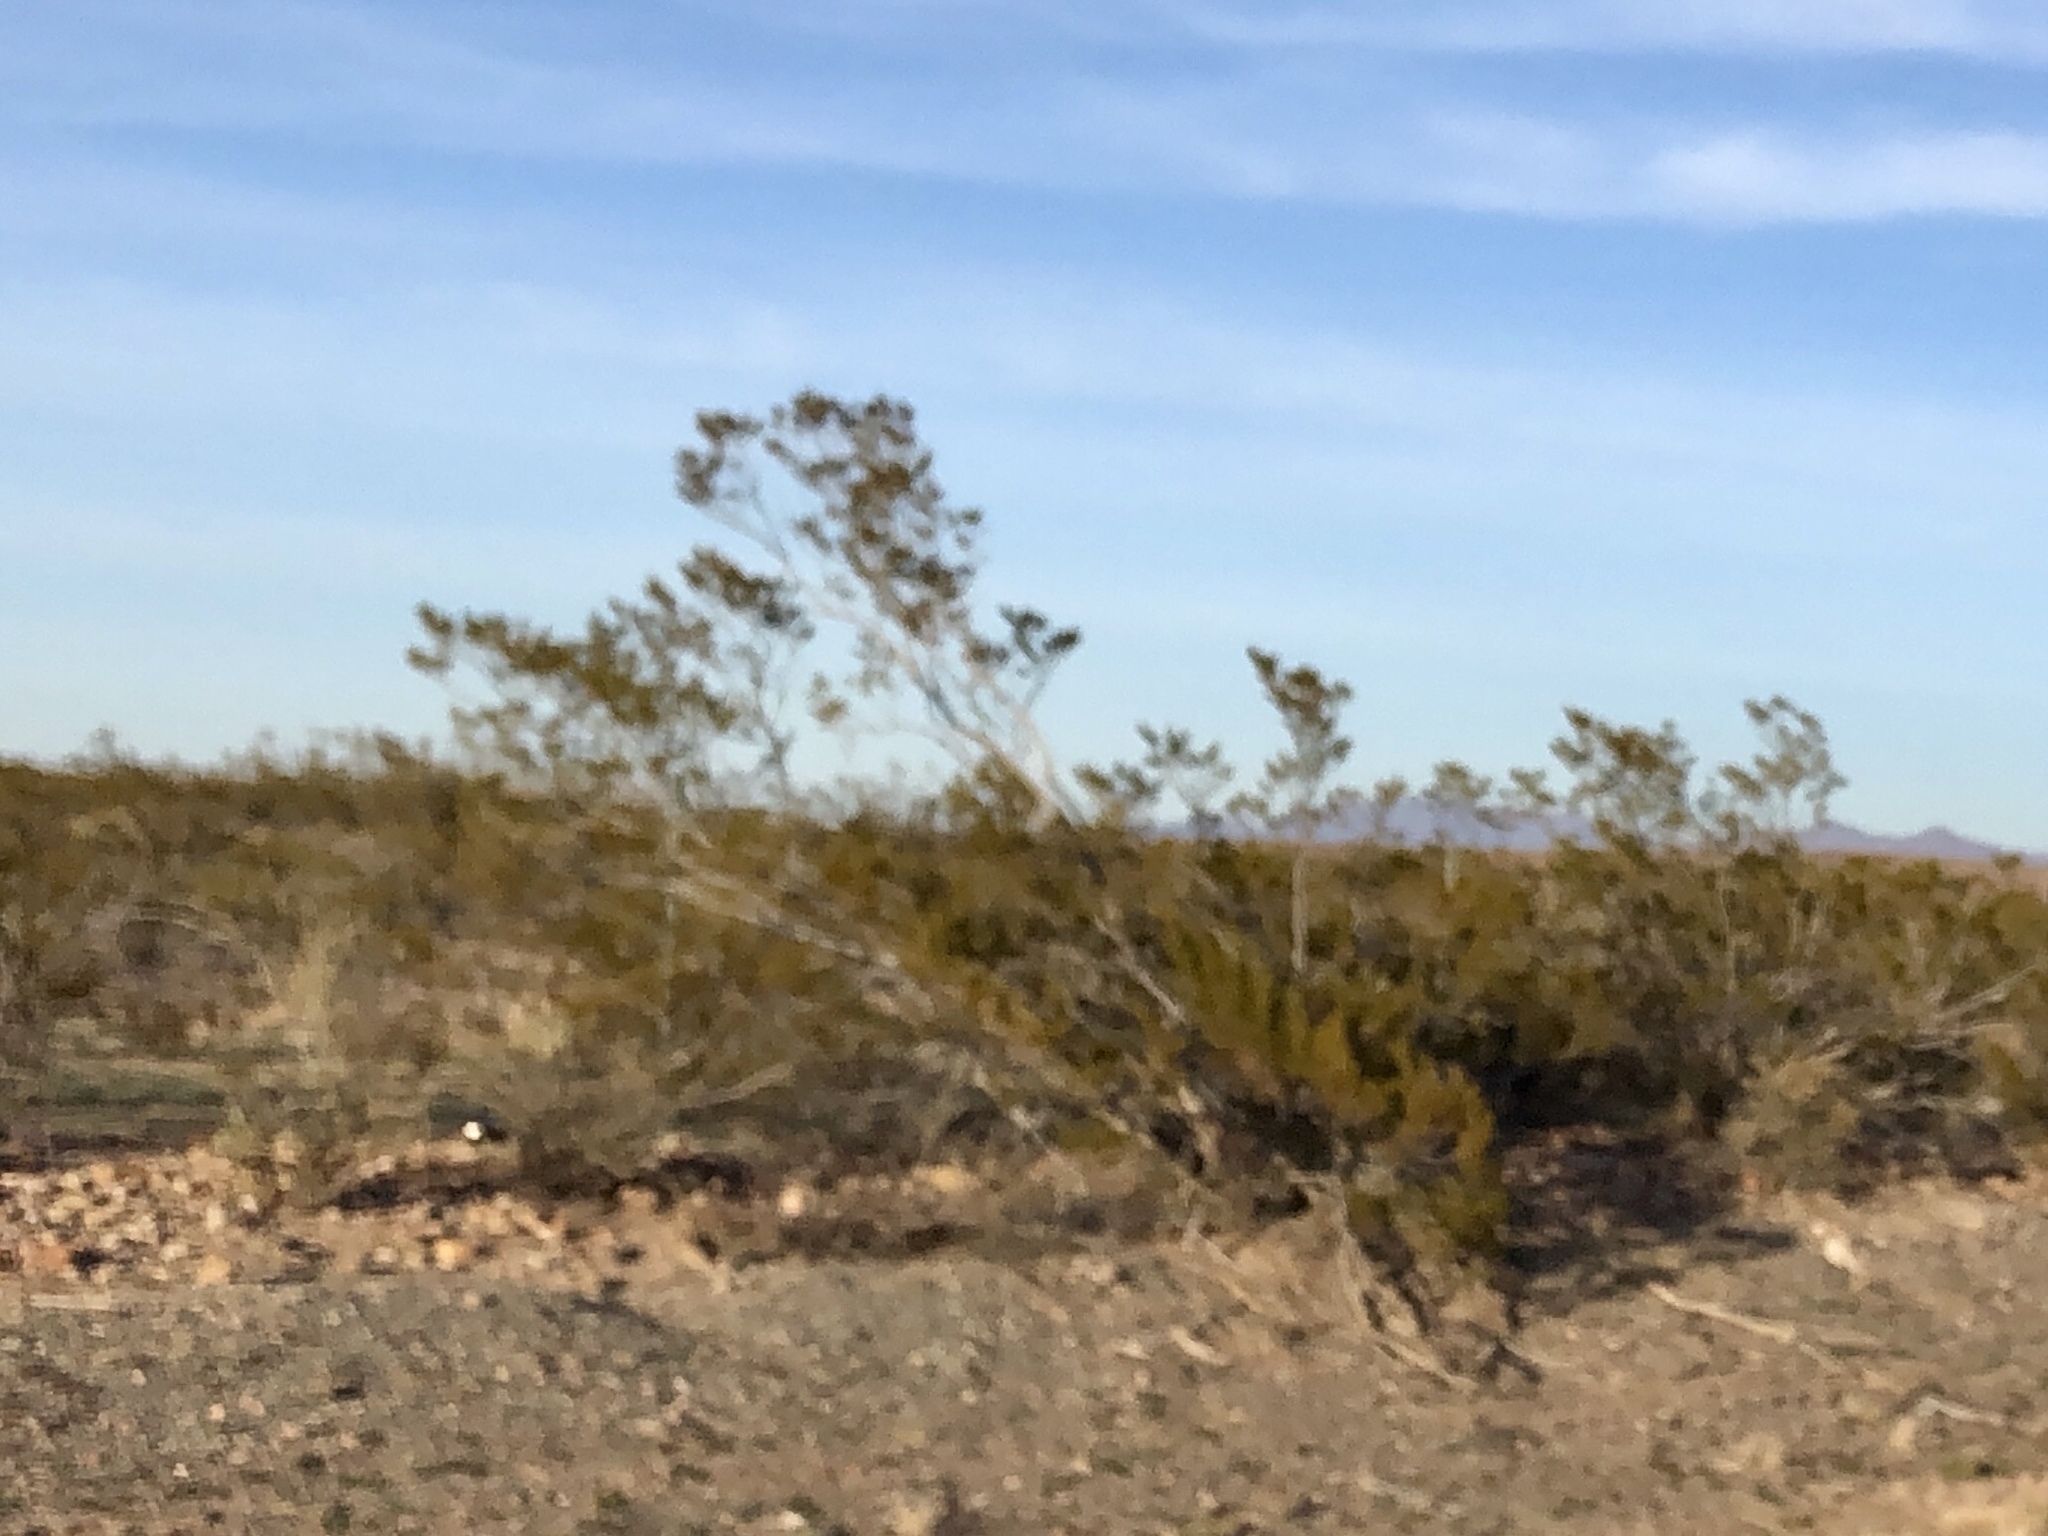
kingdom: Plantae
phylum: Tracheophyta
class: Magnoliopsida
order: Zygophyllales
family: Zygophyllaceae
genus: Larrea
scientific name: Larrea tridentata
